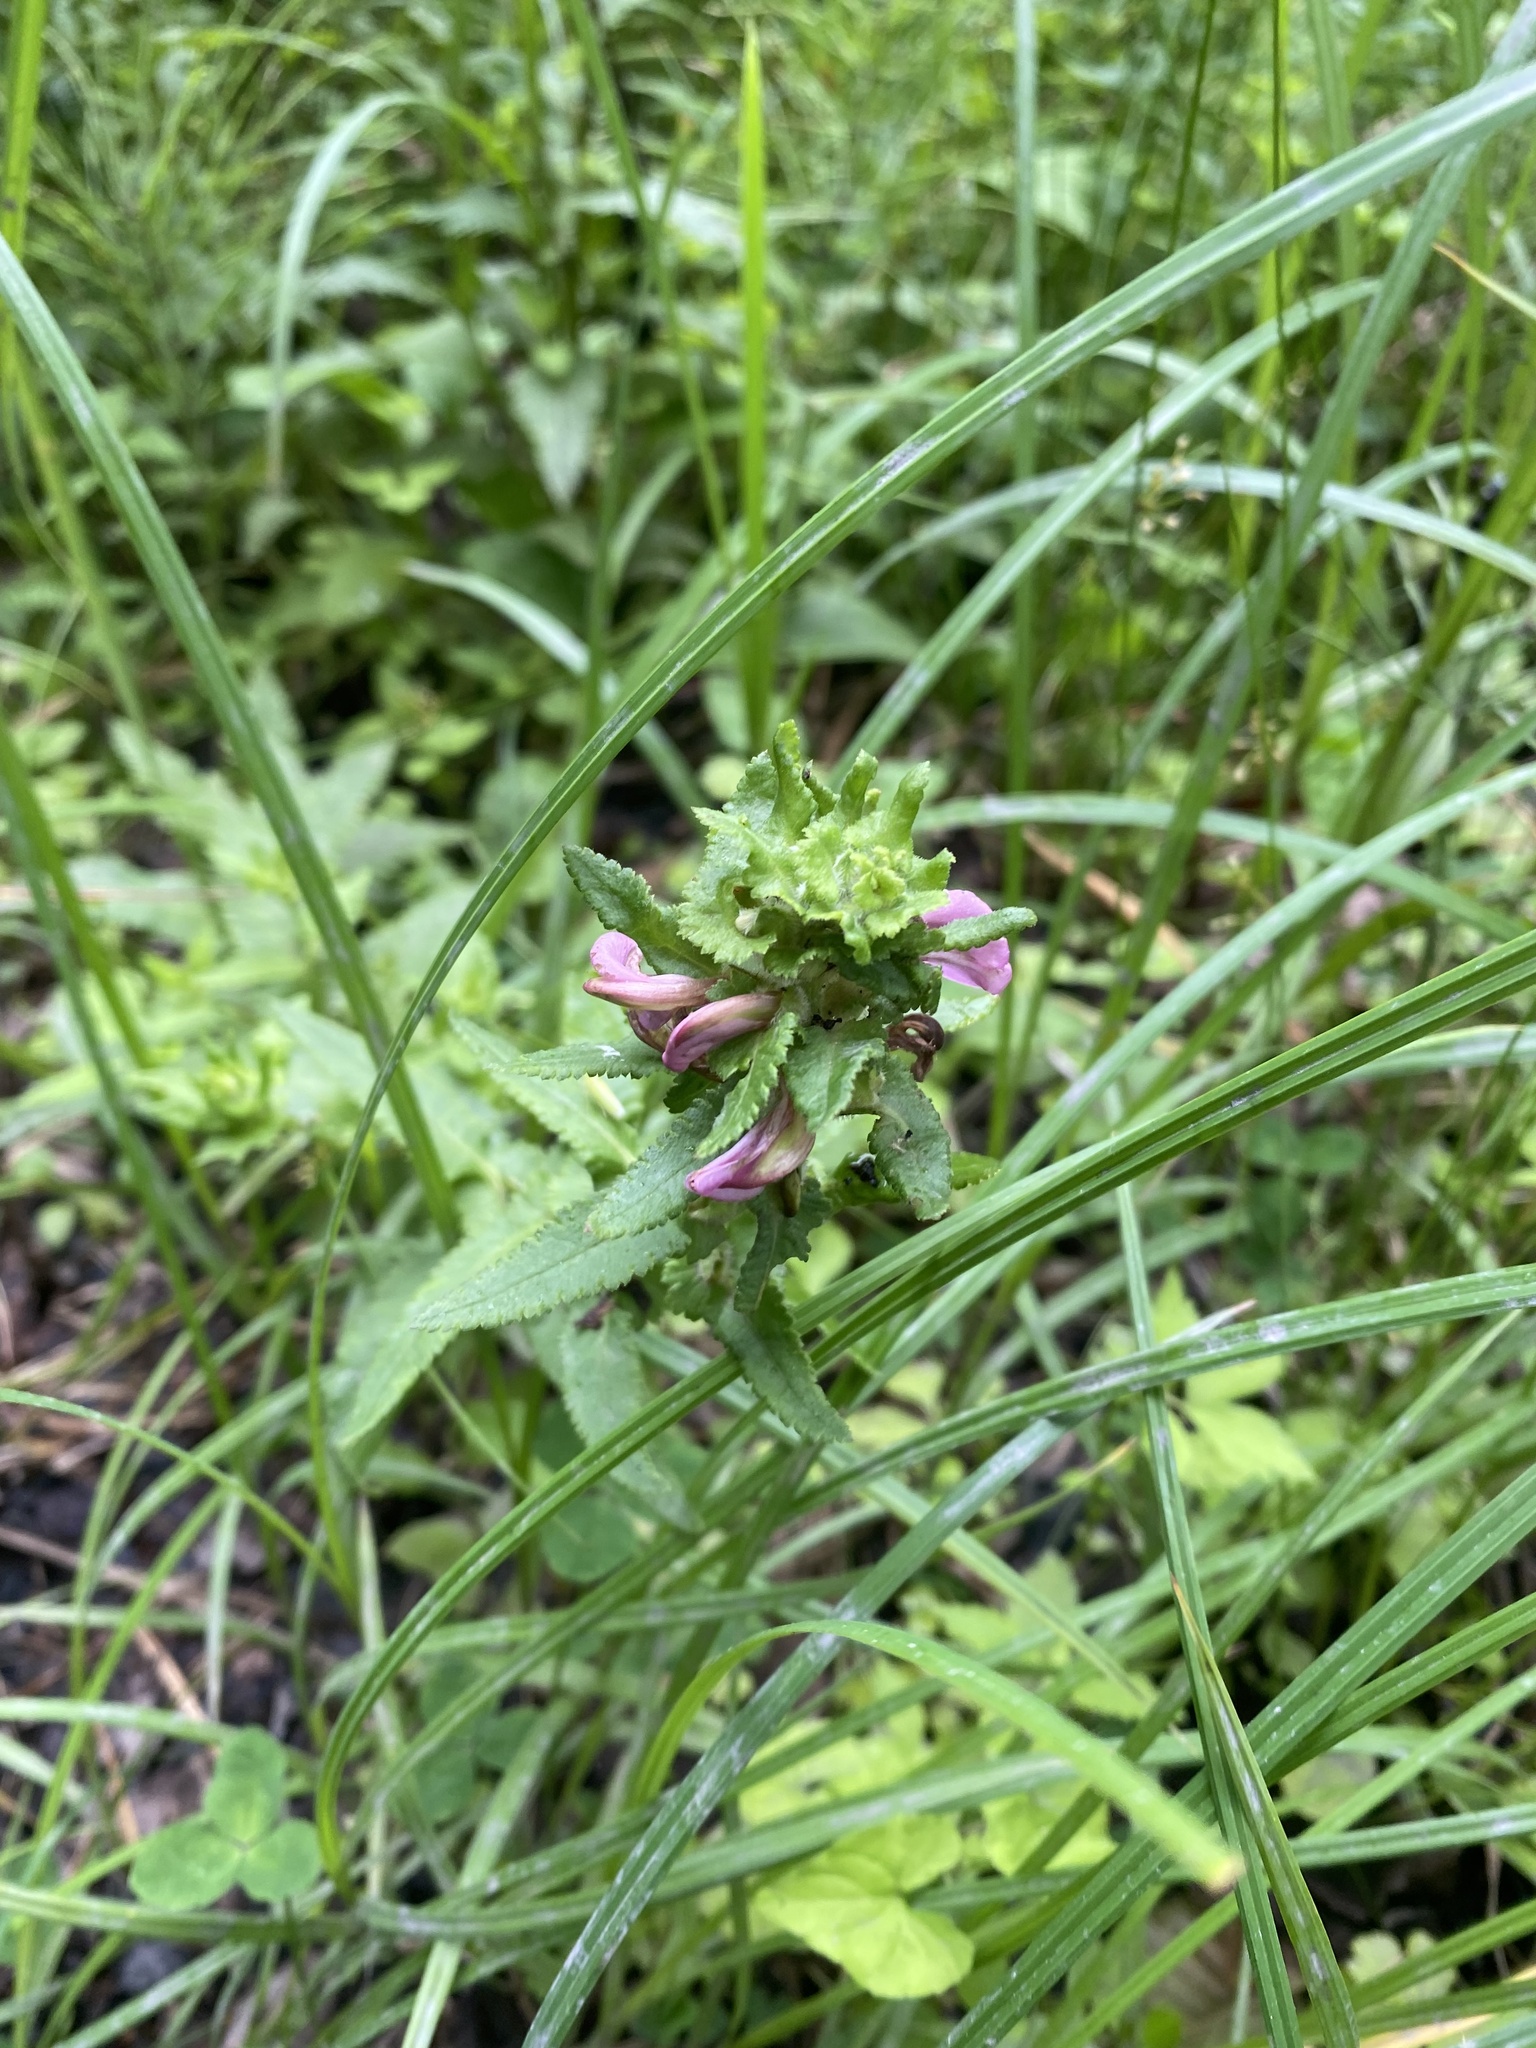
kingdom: Plantae
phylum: Tracheophyta
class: Magnoliopsida
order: Lamiales
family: Orobanchaceae
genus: Pedicularis
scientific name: Pedicularis resupinata
